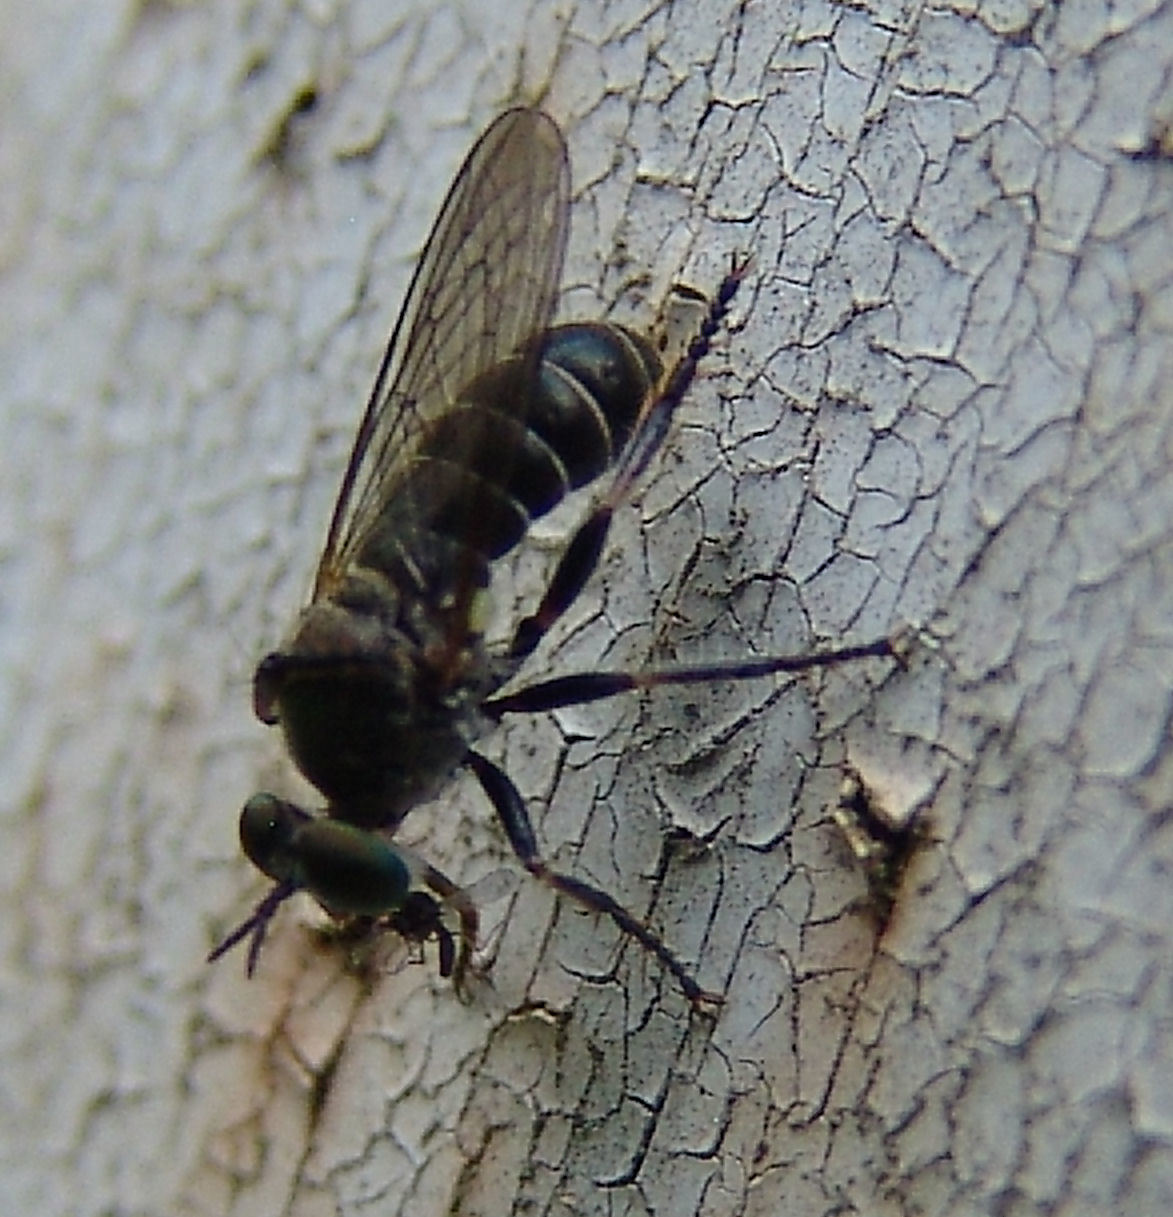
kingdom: Animalia
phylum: Arthropoda
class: Insecta
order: Diptera
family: Asilidae
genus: Atomosia
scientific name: Atomosia
